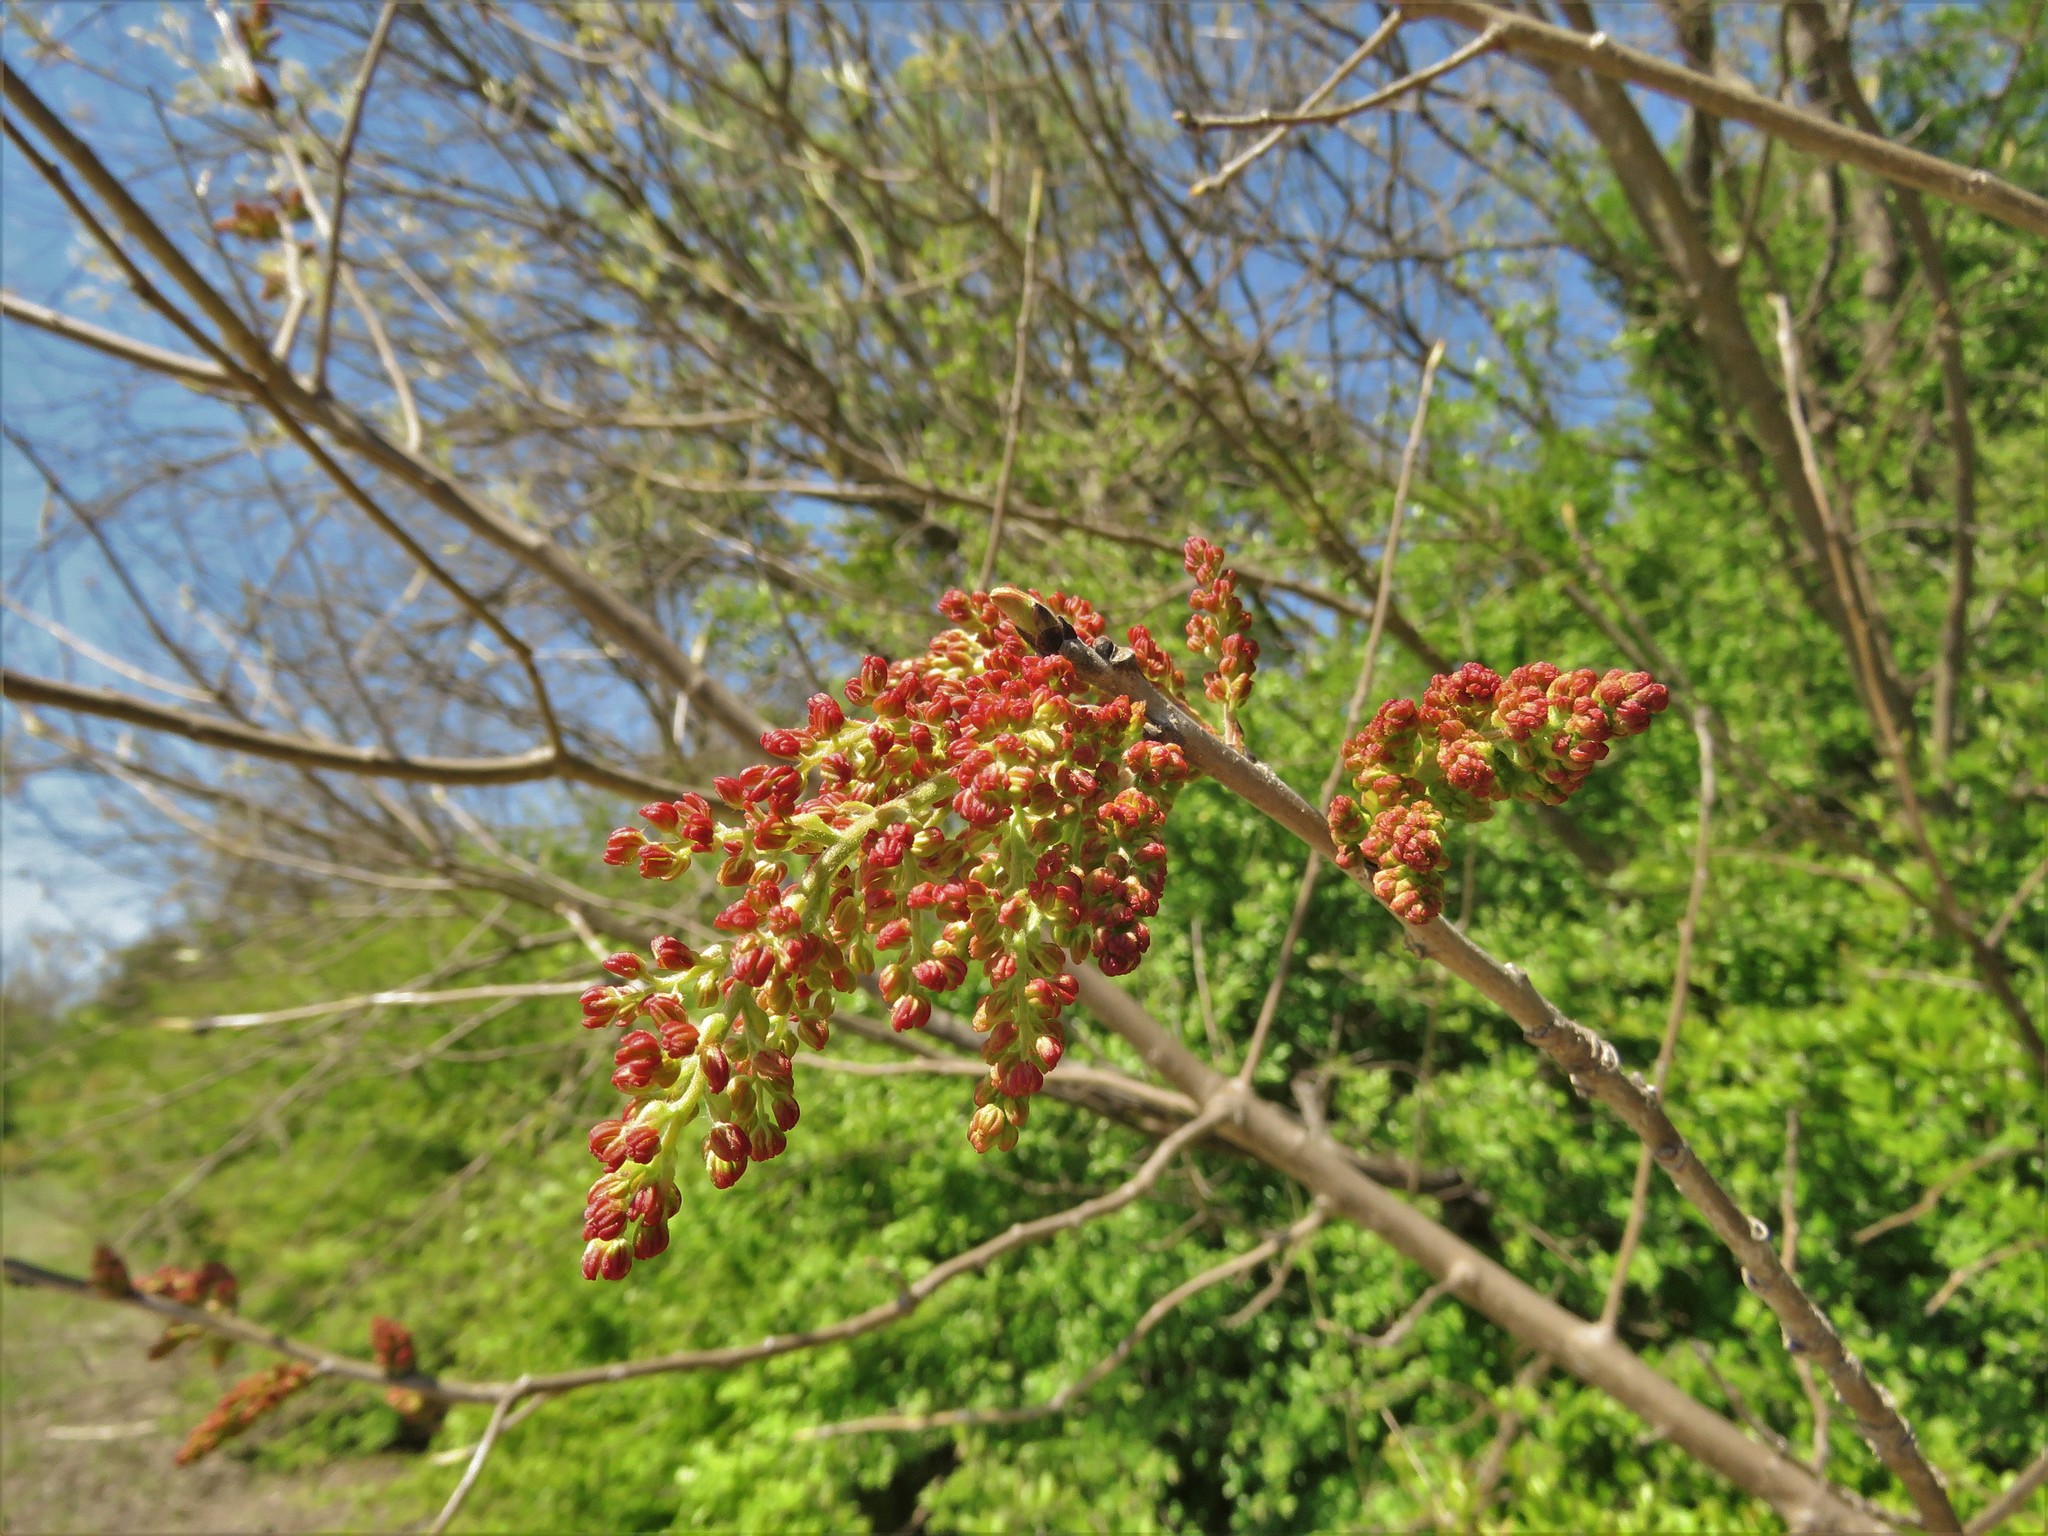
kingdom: Plantae
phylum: Tracheophyta
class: Magnoliopsida
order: Sapindales
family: Anacardiaceae
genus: Pistacia
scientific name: Pistacia chinensis
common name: Chinese pistache
